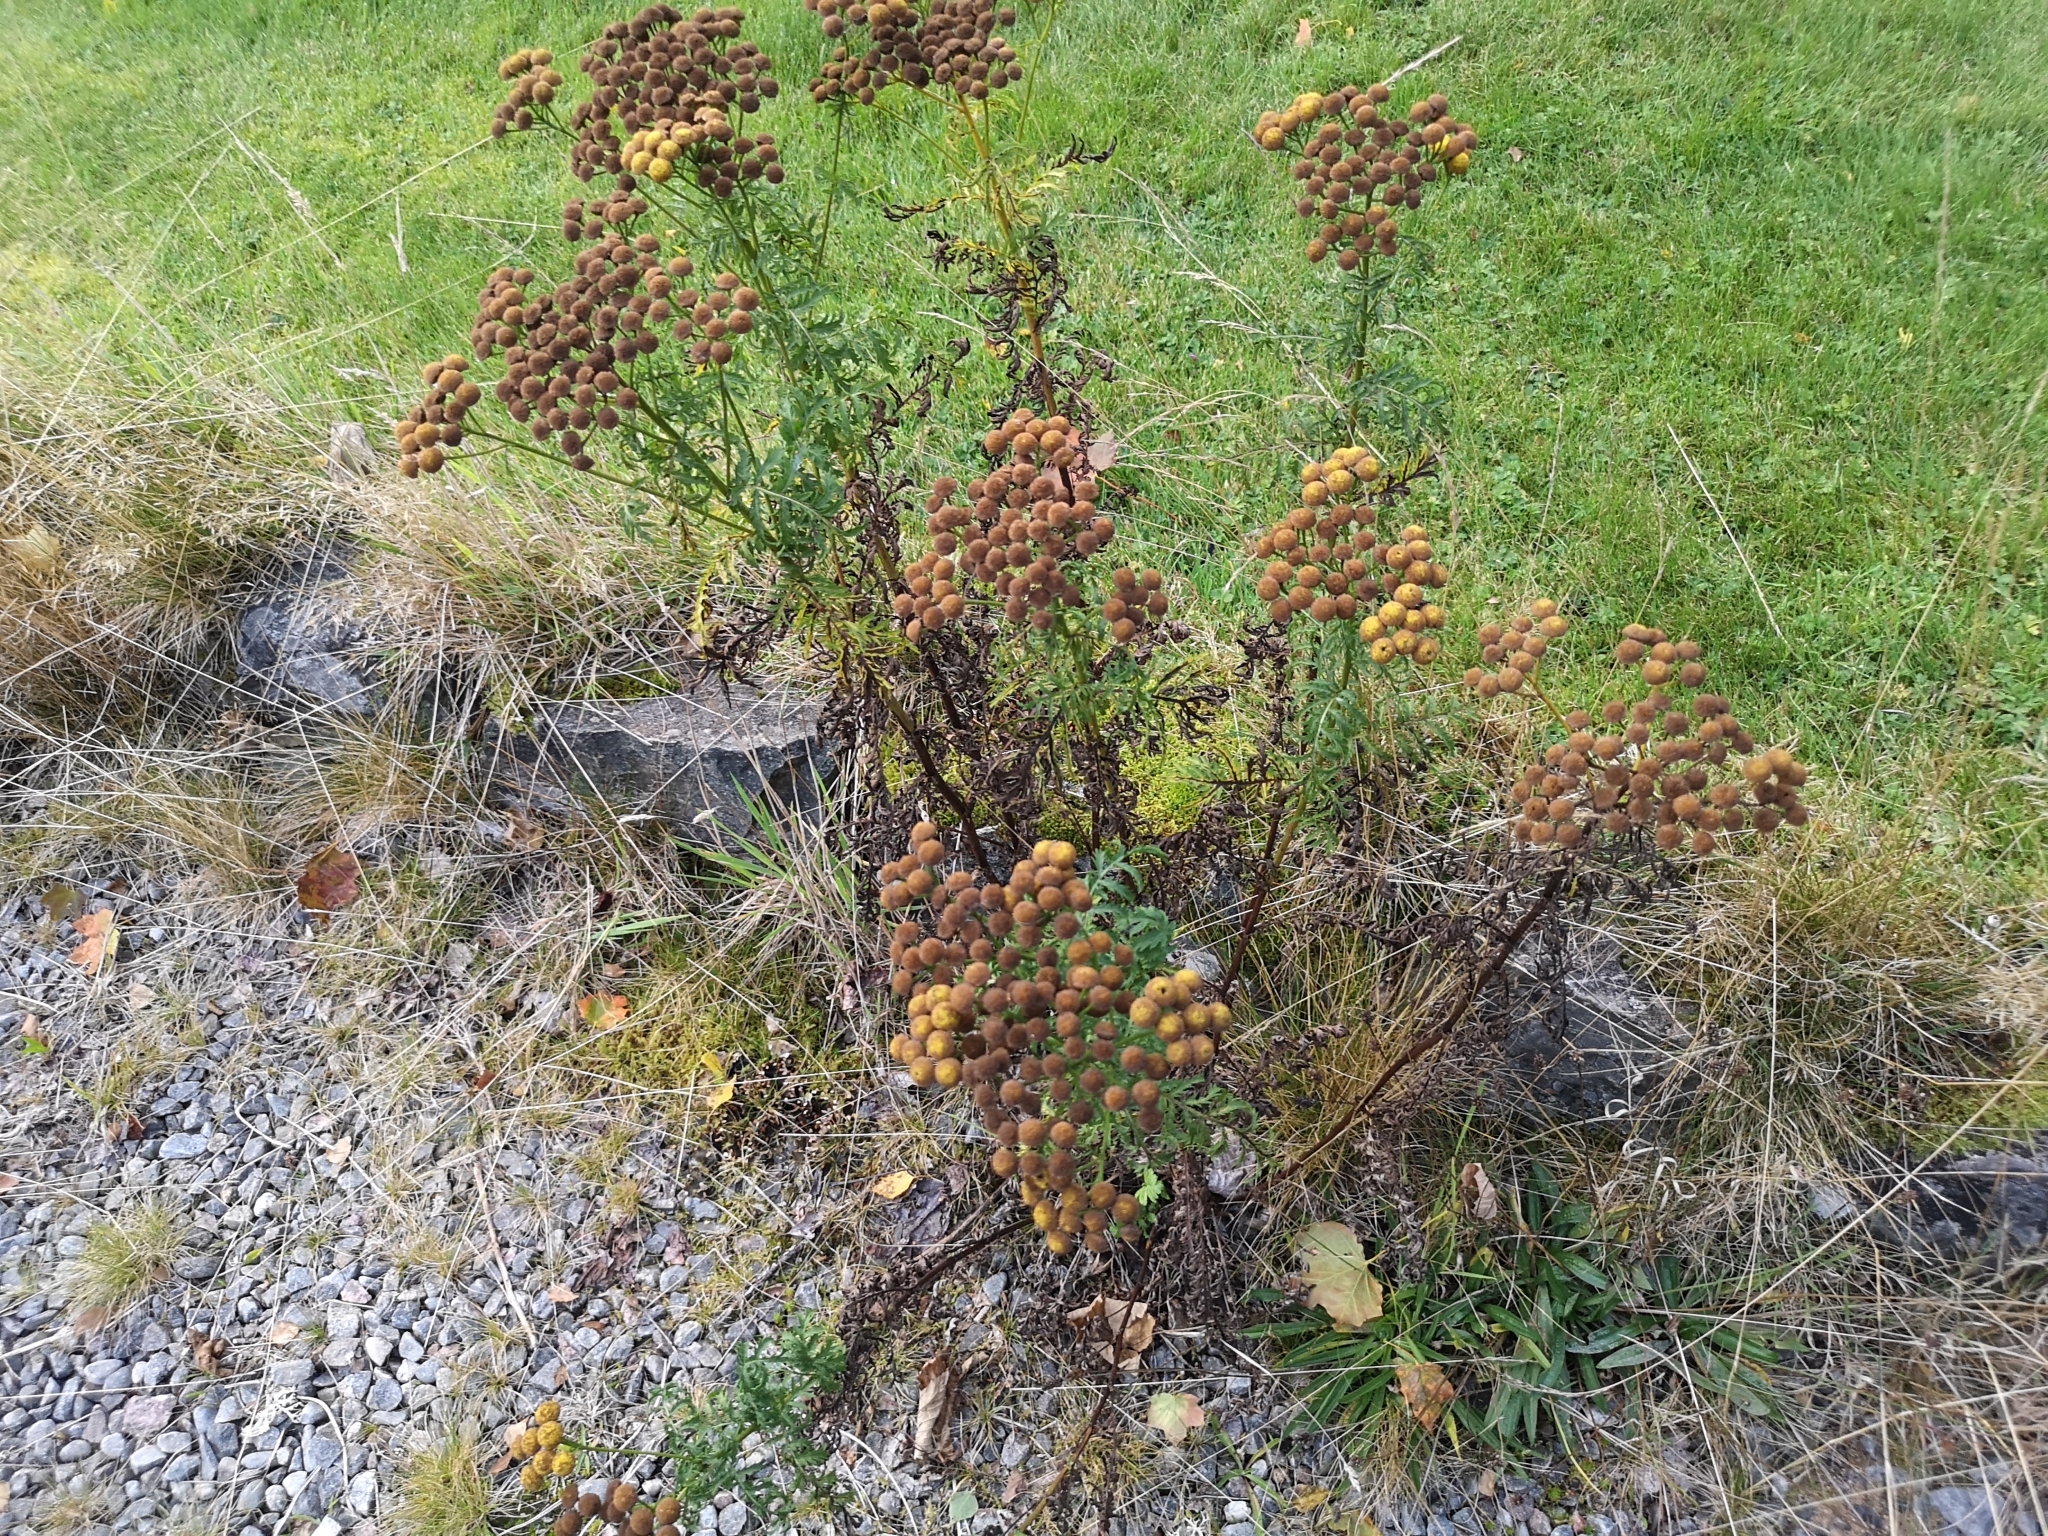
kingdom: Plantae
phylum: Tracheophyta
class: Magnoliopsida
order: Asterales
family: Asteraceae
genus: Tanacetum
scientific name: Tanacetum vulgare
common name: Common tansy
